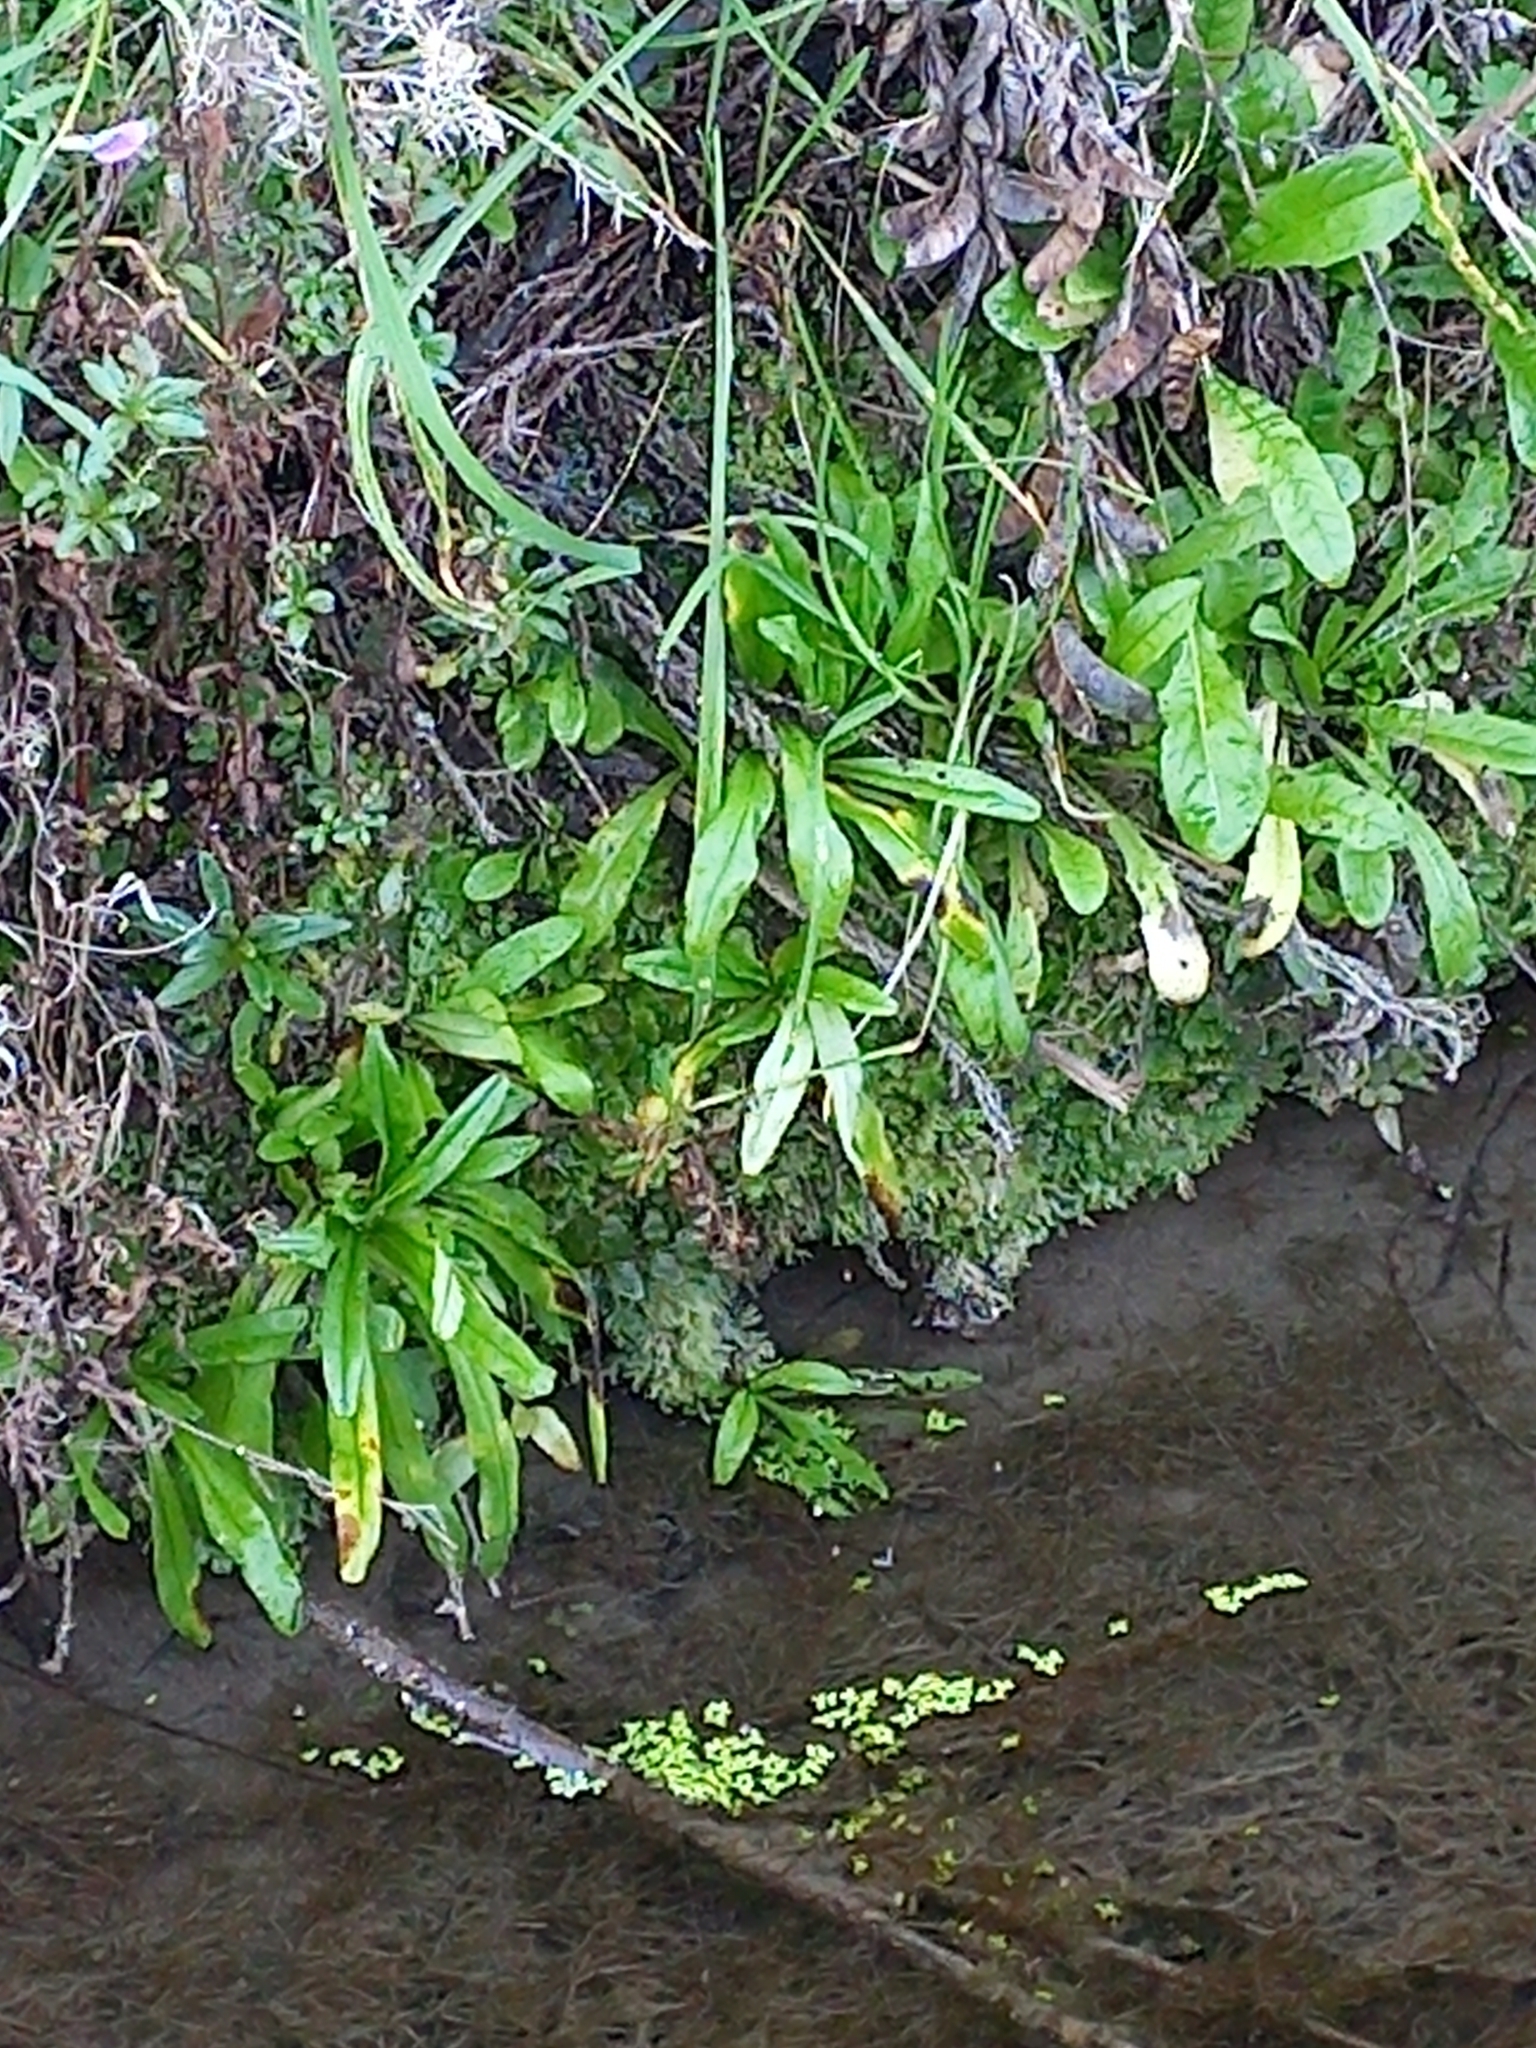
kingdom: Plantae
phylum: Tracheophyta
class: Magnoliopsida
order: Boraginales
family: Boraginaceae
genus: Myosotis
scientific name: Myosotis laxa
